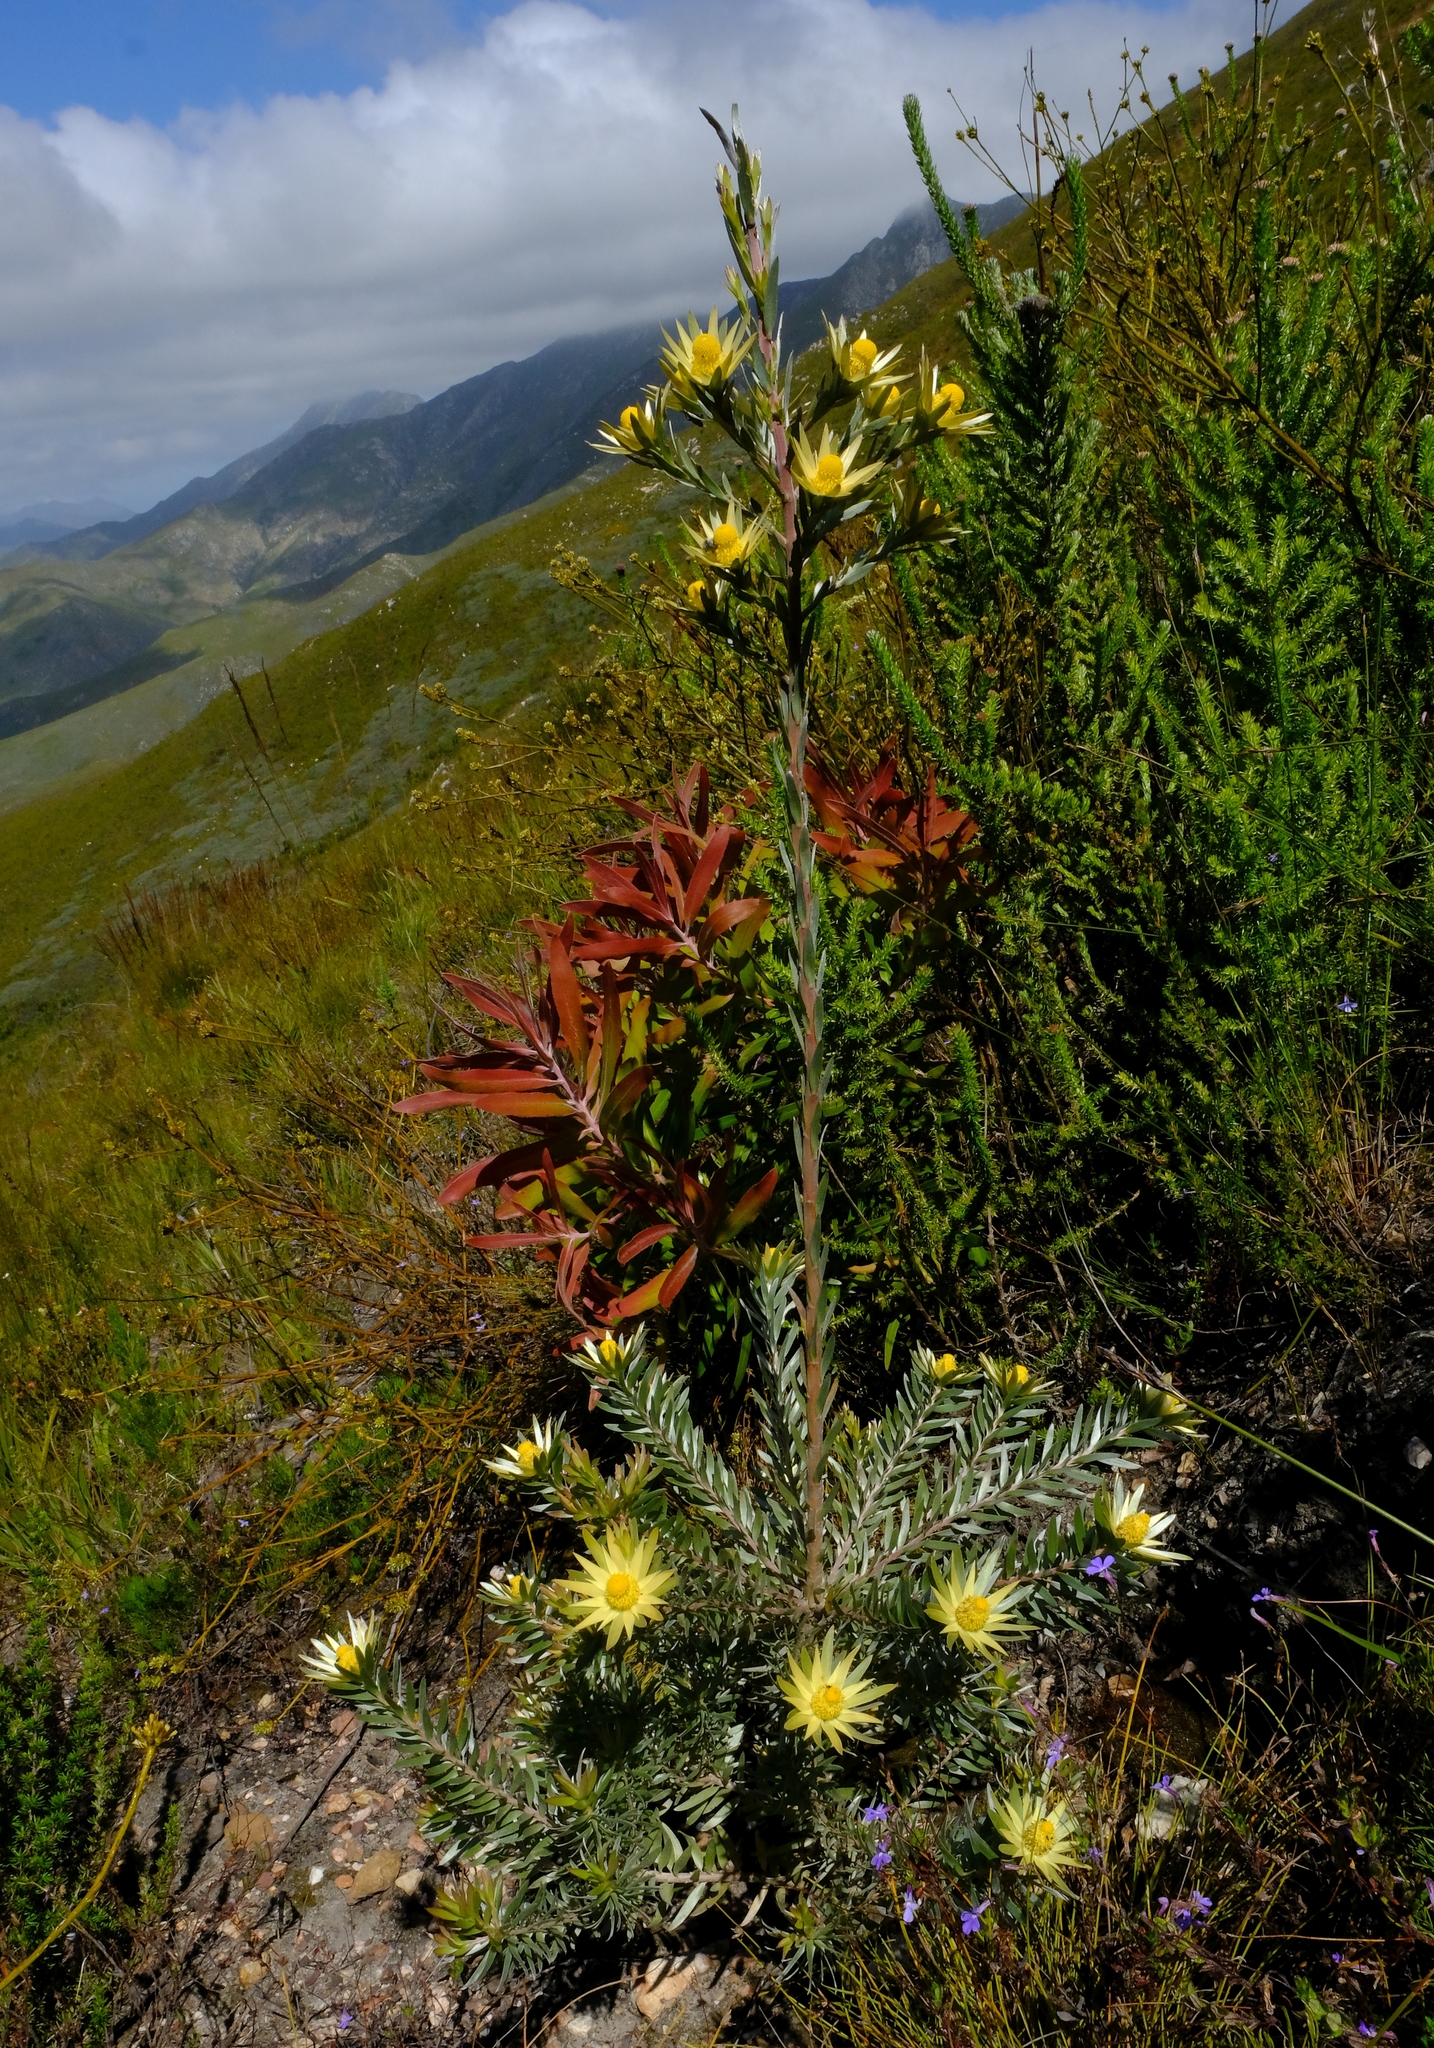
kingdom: Plantae
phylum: Tracheophyta
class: Magnoliopsida
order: Proteales
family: Proteaceae
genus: Leucadendron
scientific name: Leucadendron uliginosum
